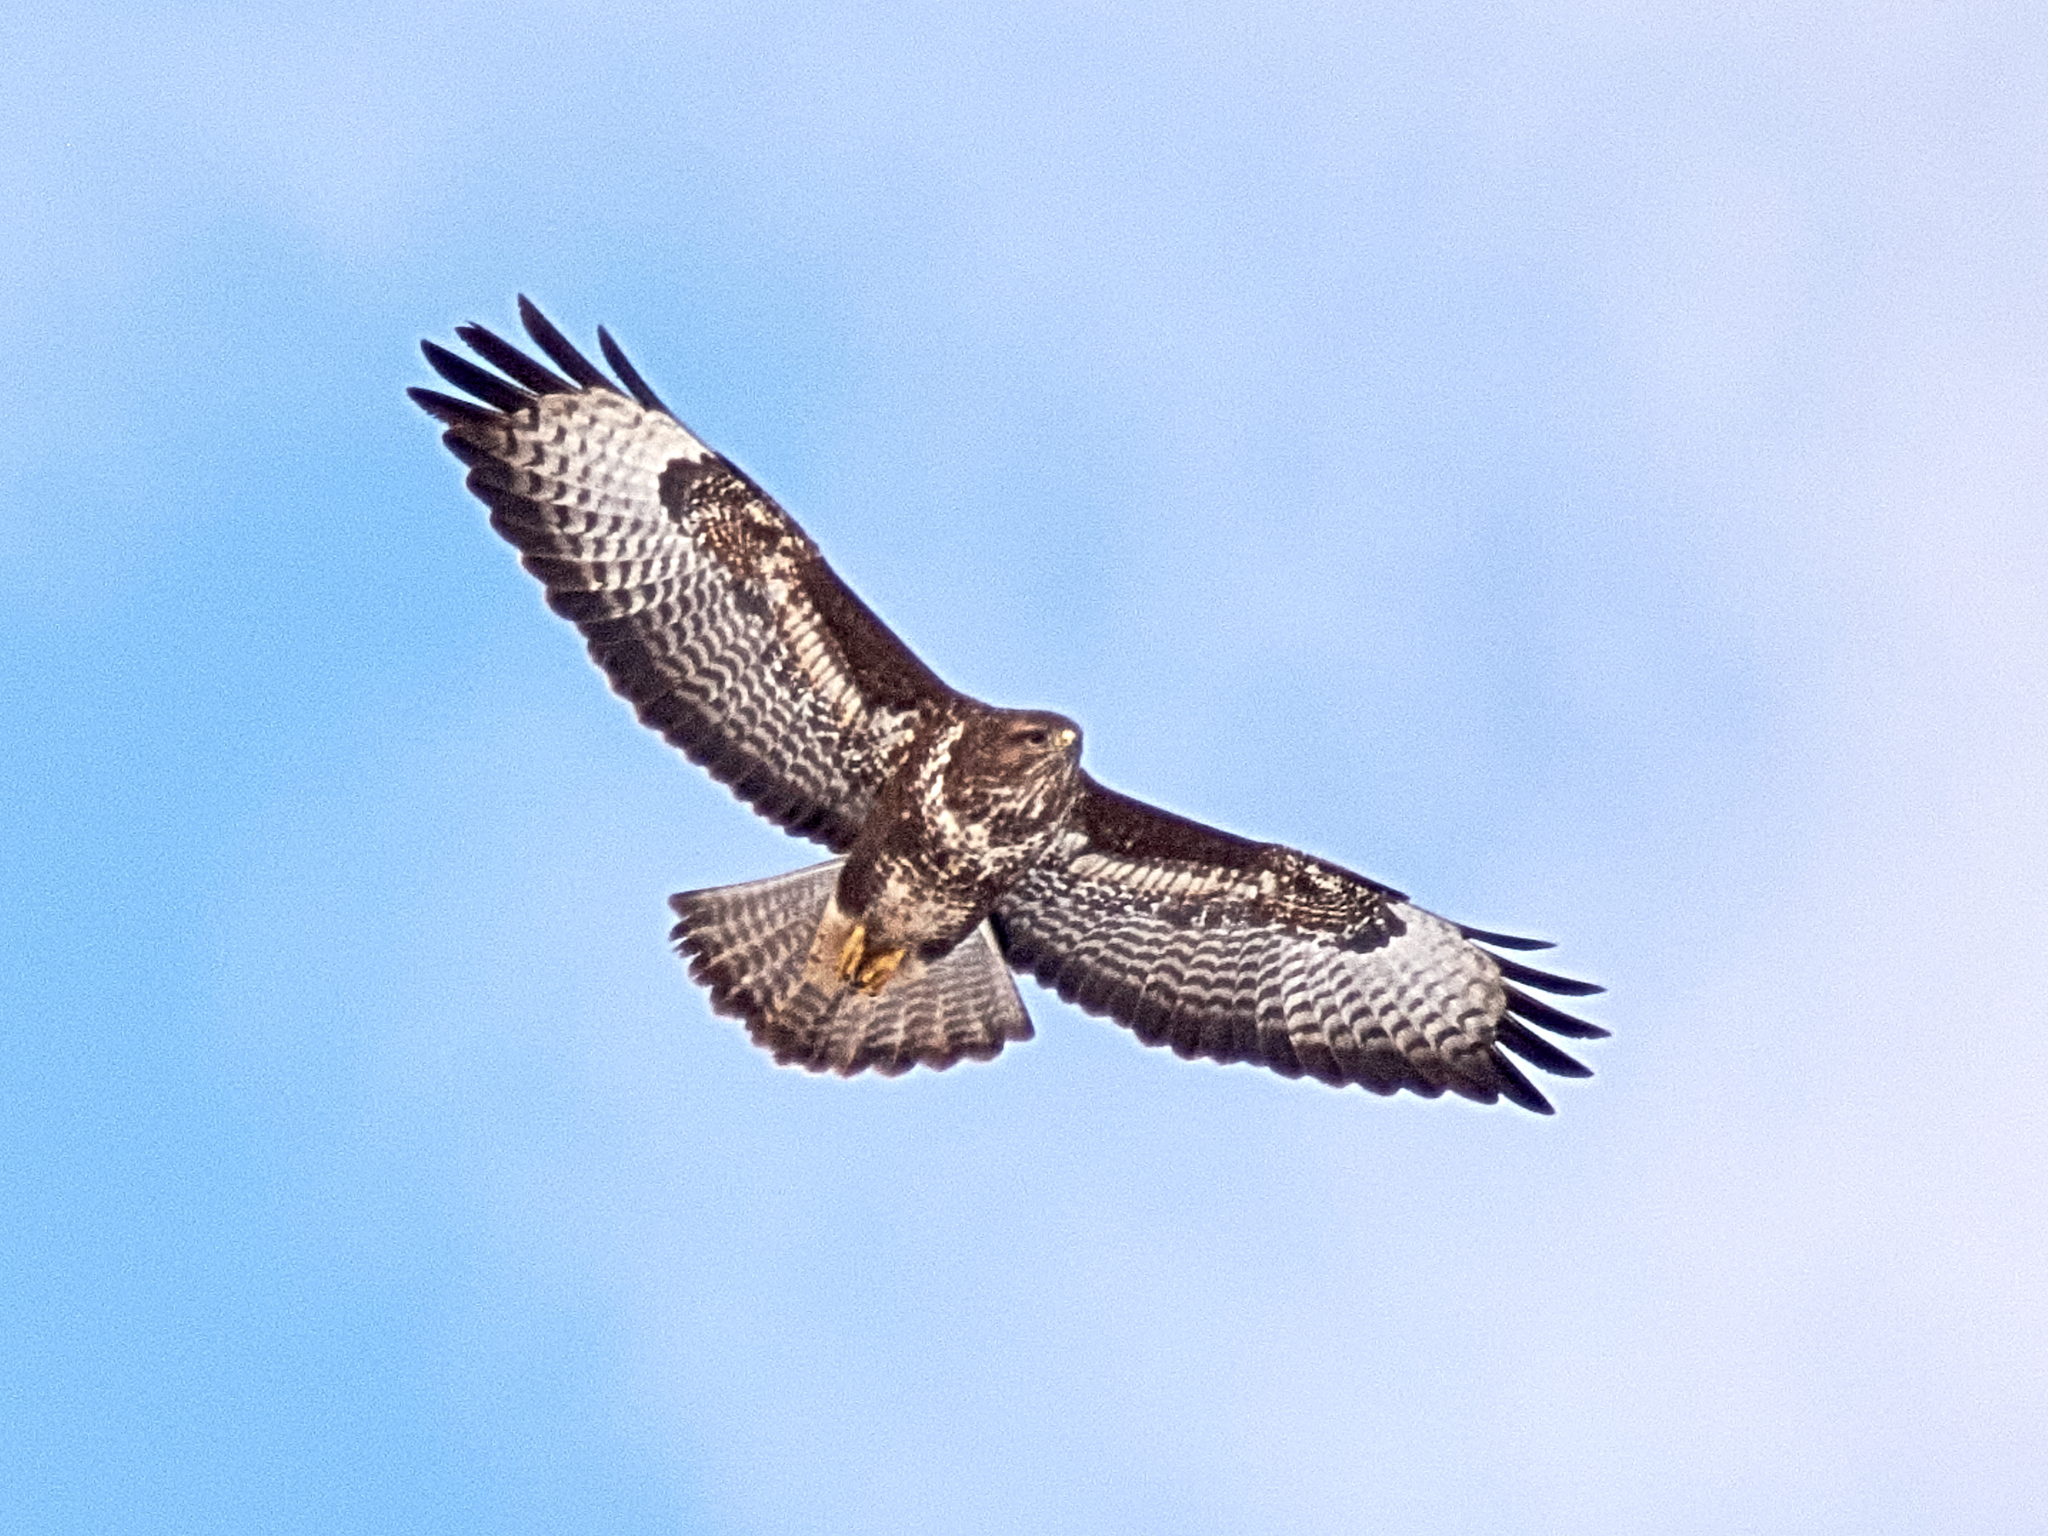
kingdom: Animalia
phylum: Chordata
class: Aves
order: Accipitriformes
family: Accipitridae
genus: Buteo
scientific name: Buteo buteo
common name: Common buzzard
